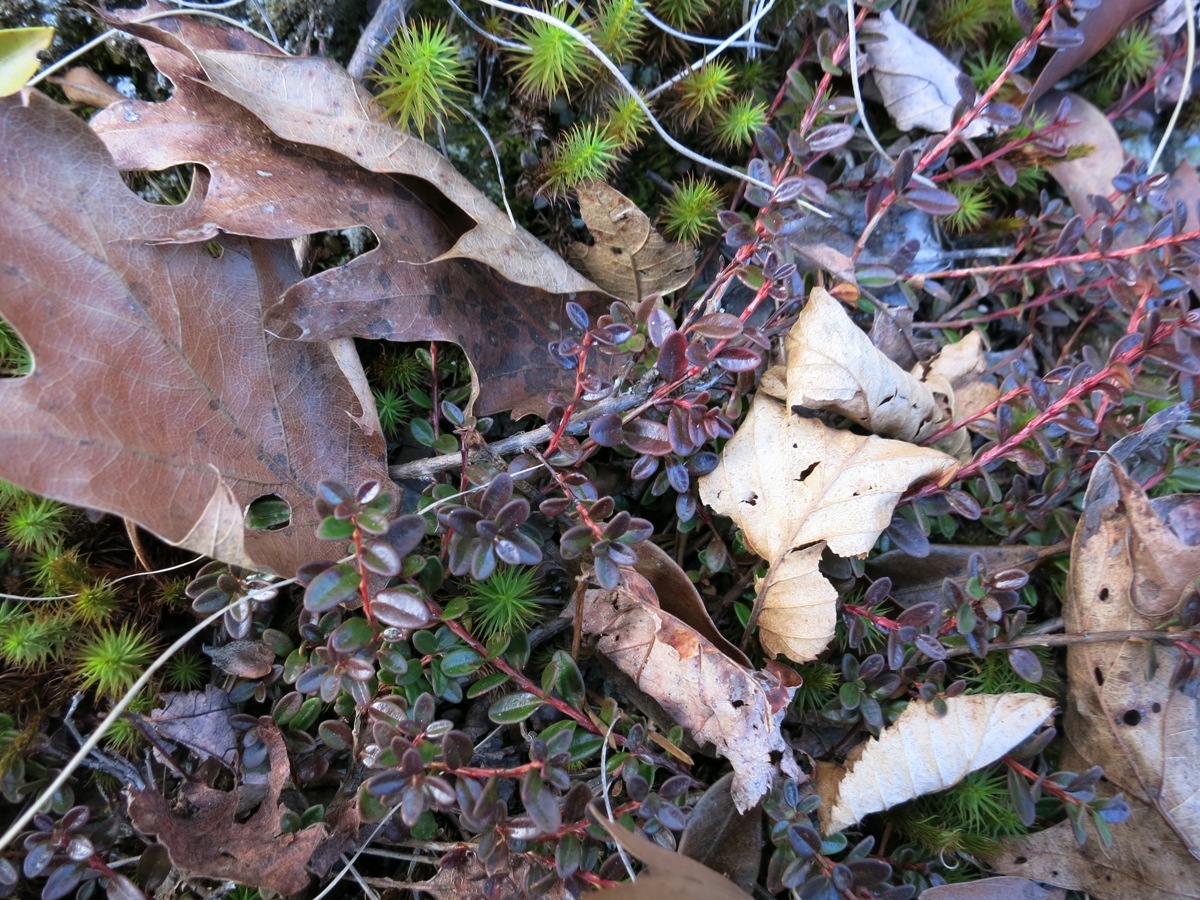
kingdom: Plantae
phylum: Tracheophyta
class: Magnoliopsida
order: Ericales
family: Ericaceae
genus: Kalmia
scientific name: Kalmia buxifolia
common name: Sandmyrtle
